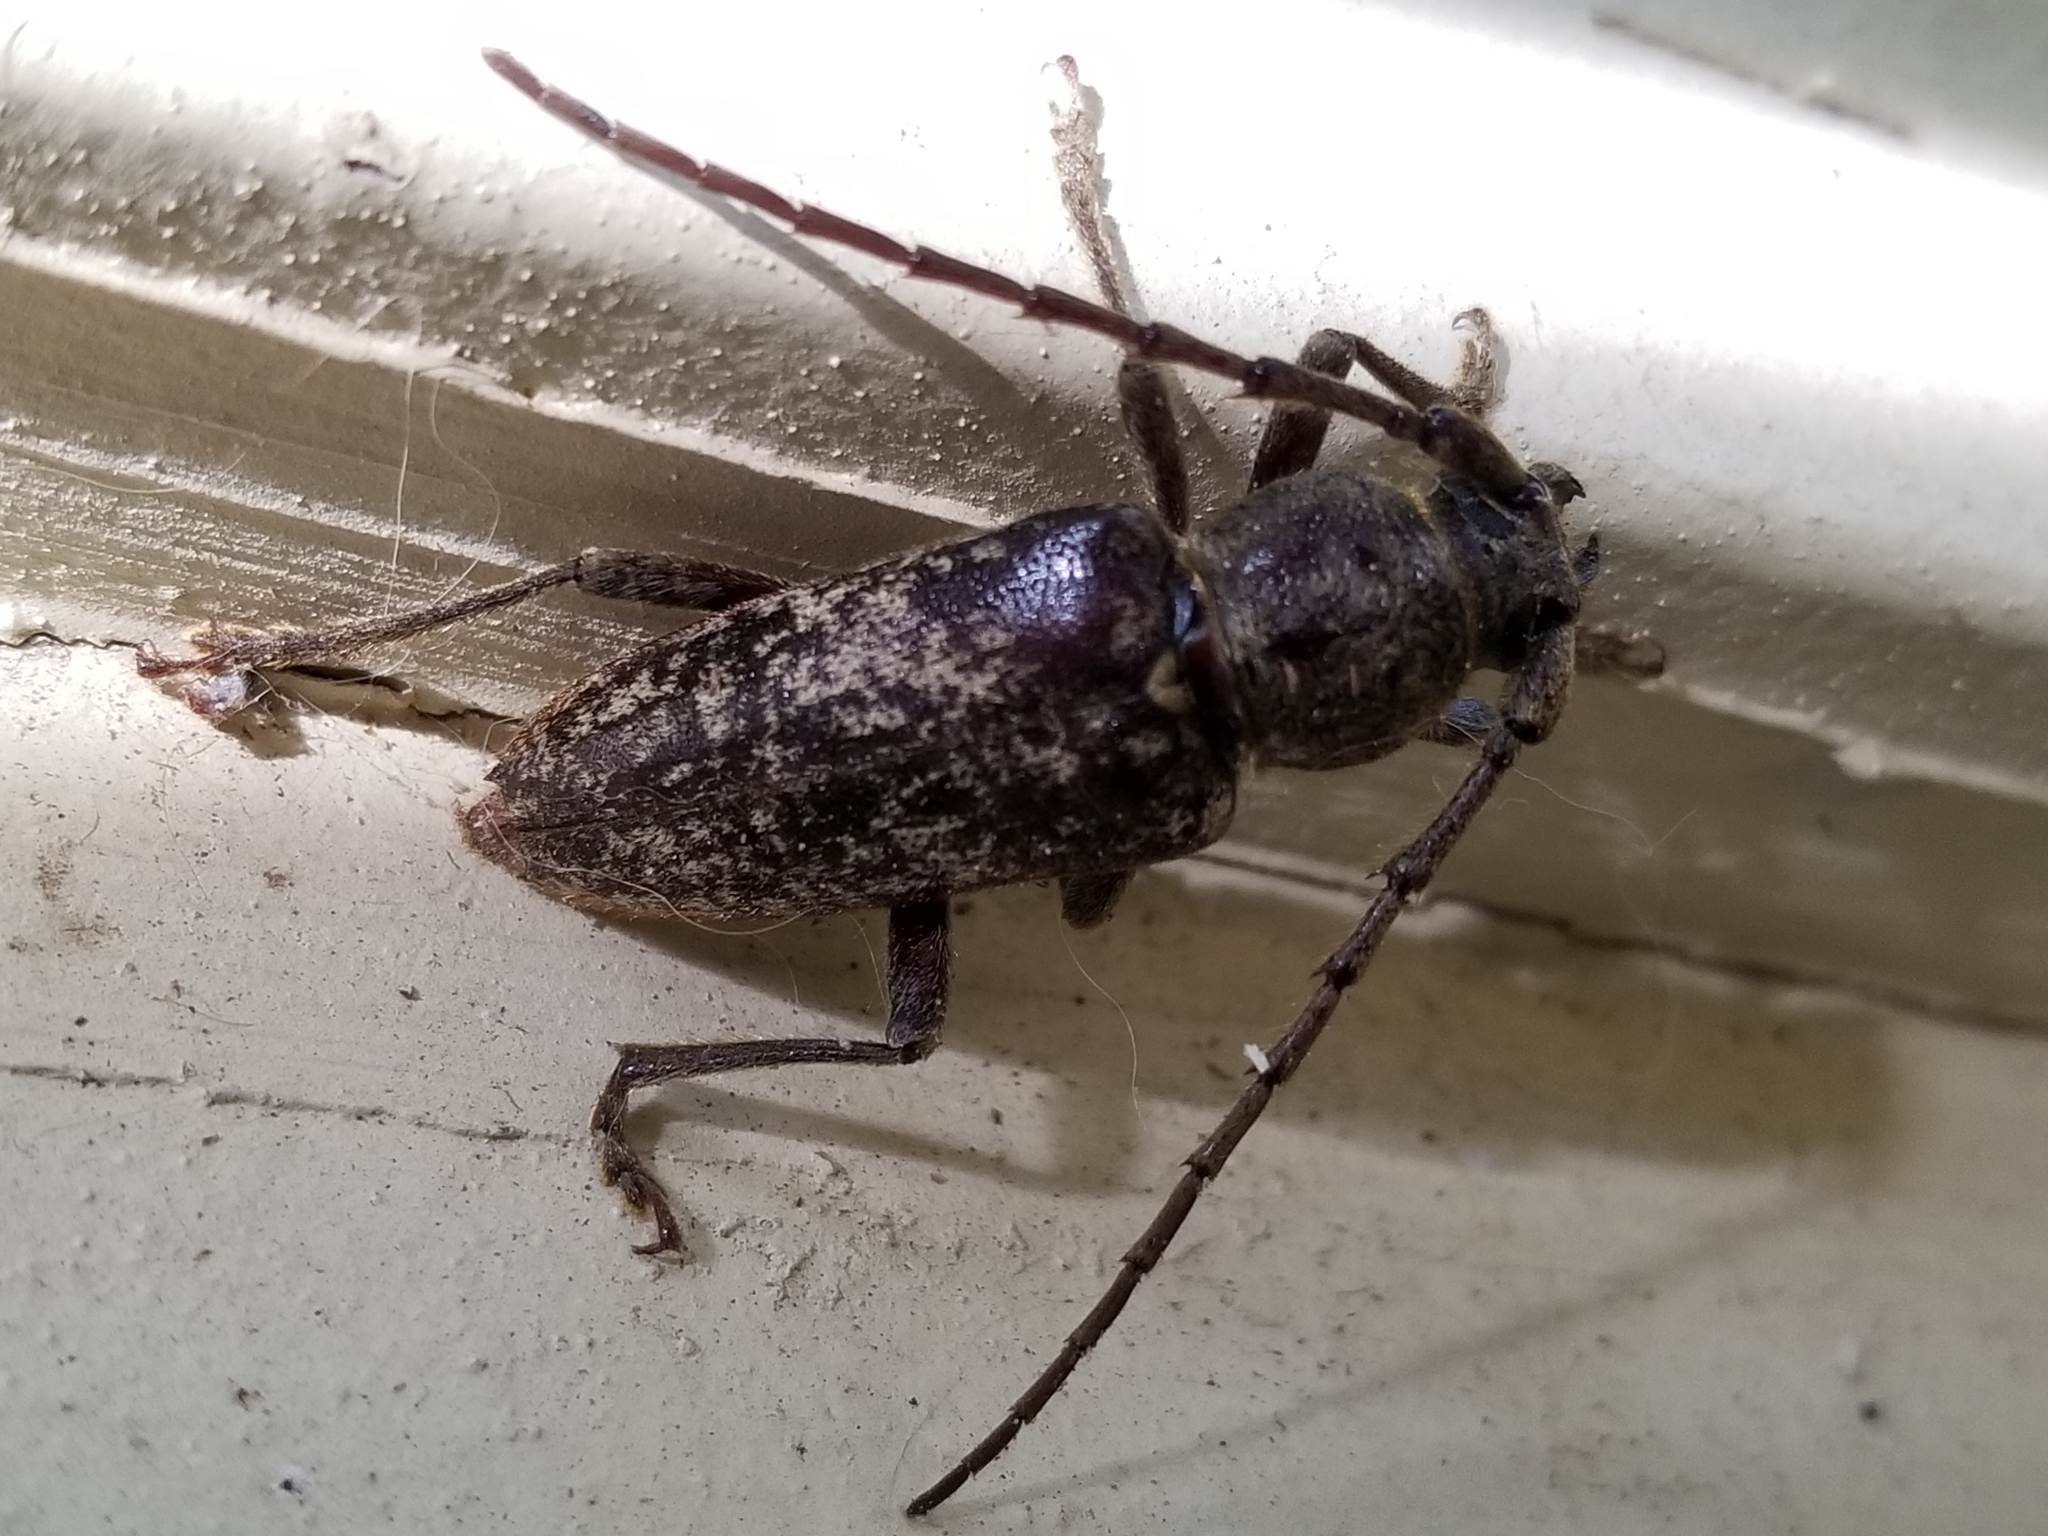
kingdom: Animalia
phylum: Arthropoda
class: Insecta
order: Coleoptera
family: Cerambycidae
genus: Enaphalodes
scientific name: Enaphalodes atomarius
